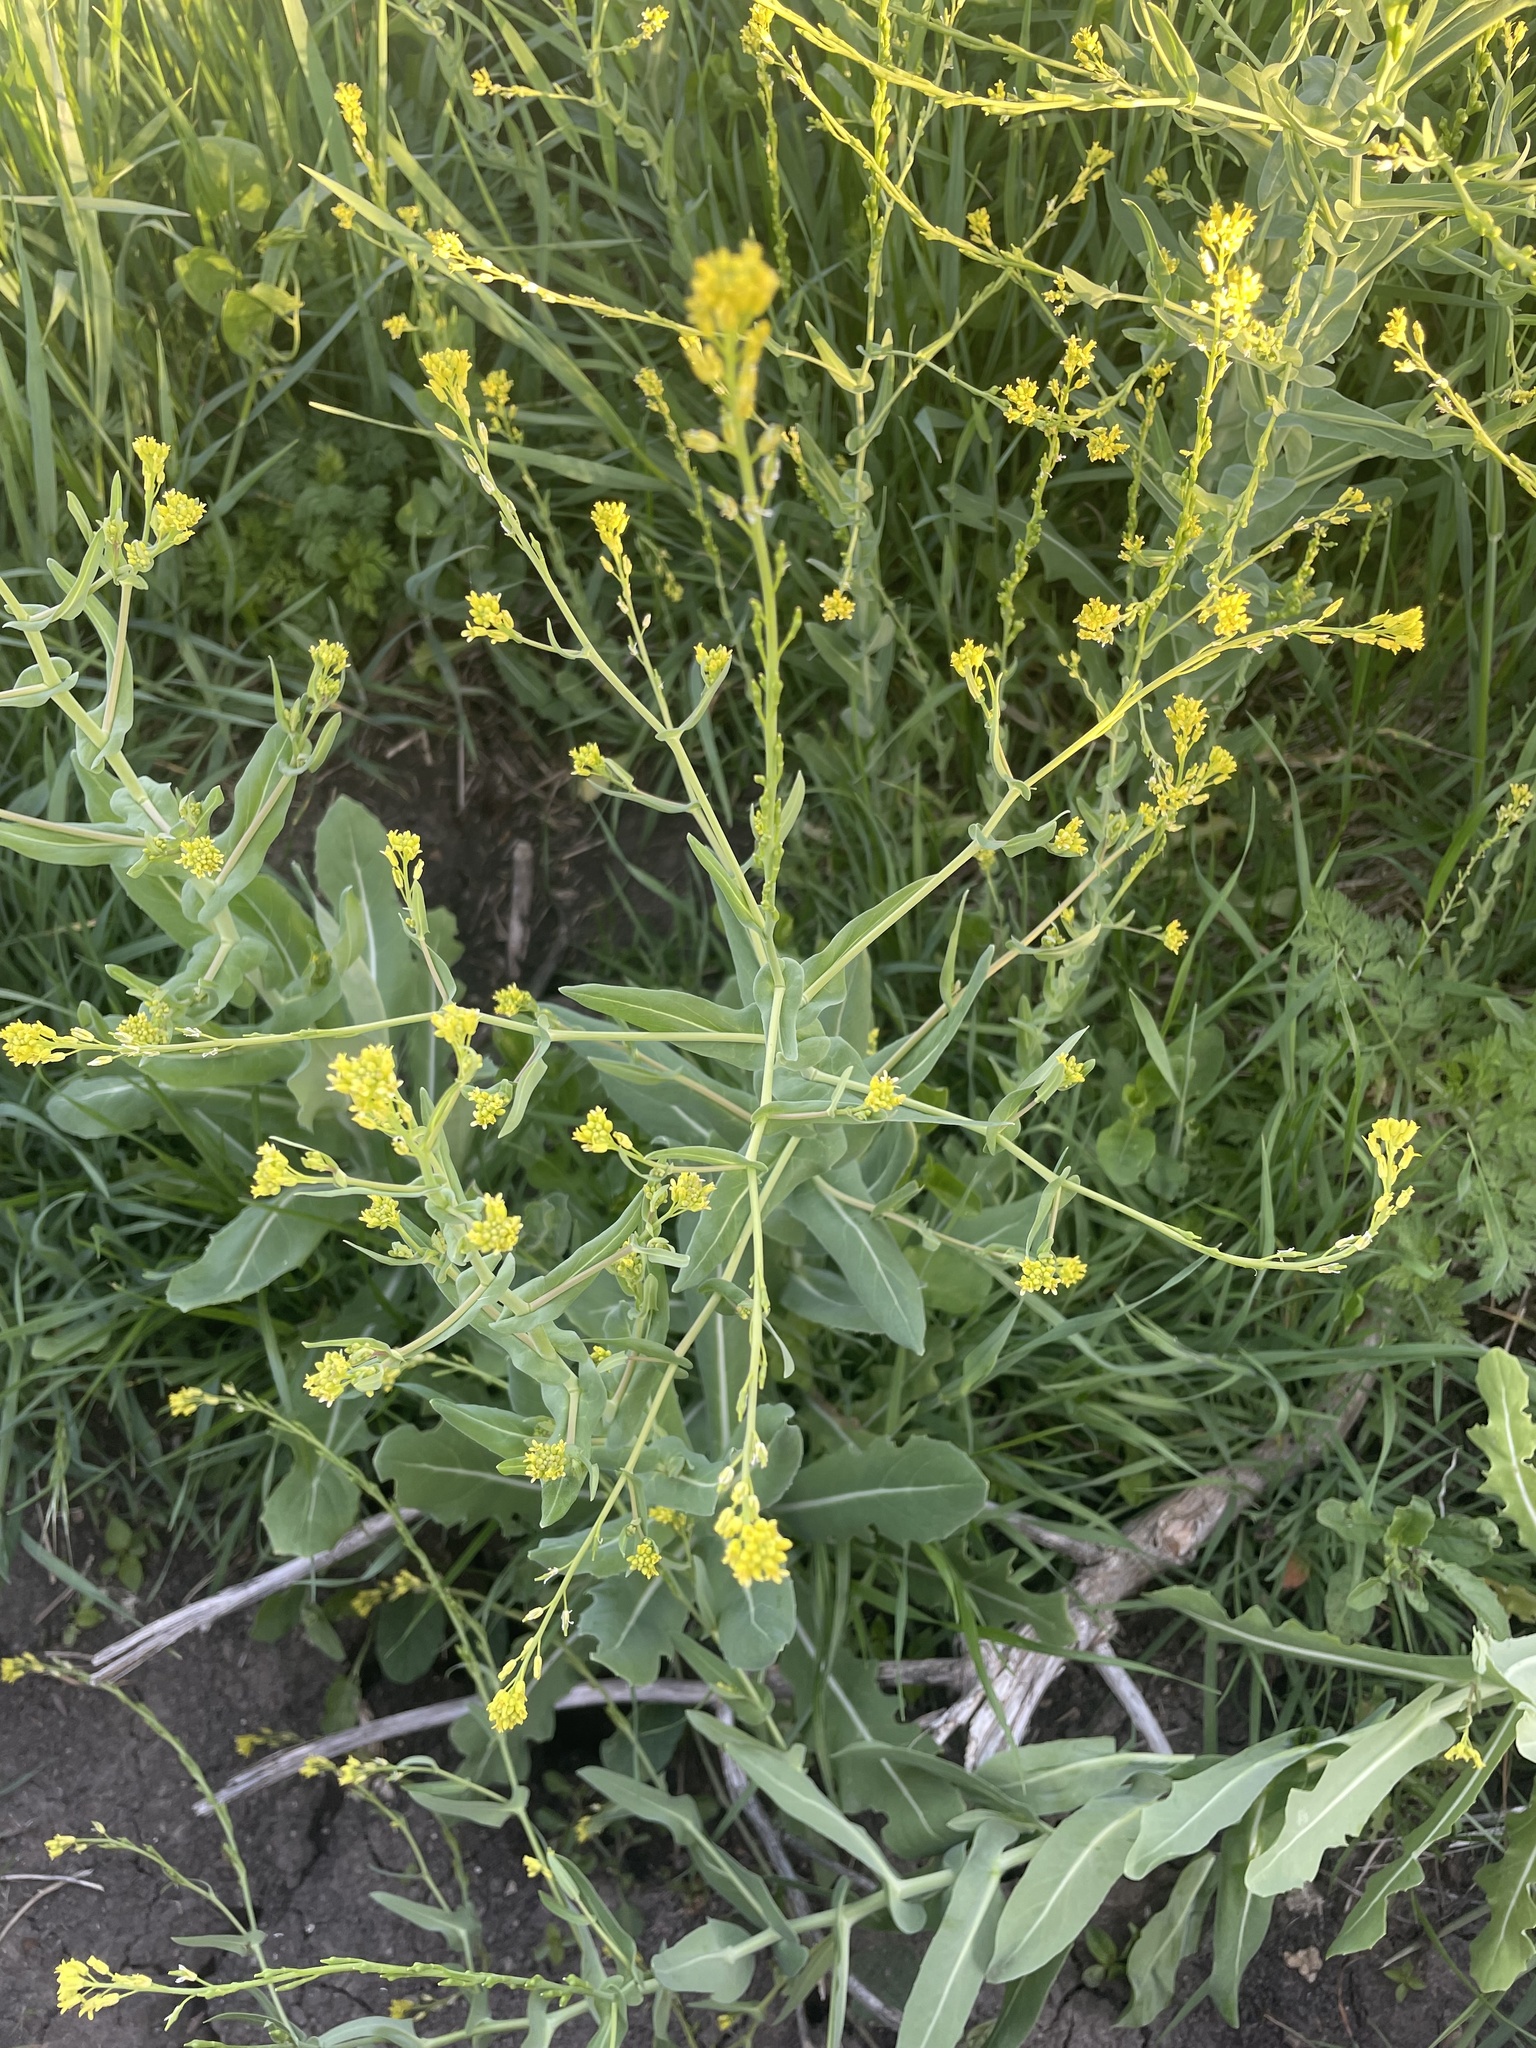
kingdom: Plantae
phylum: Tracheophyta
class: Magnoliopsida
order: Brassicales
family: Brassicaceae
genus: Myagrum
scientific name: Myagrum perfoliatum
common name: Mitre cress
